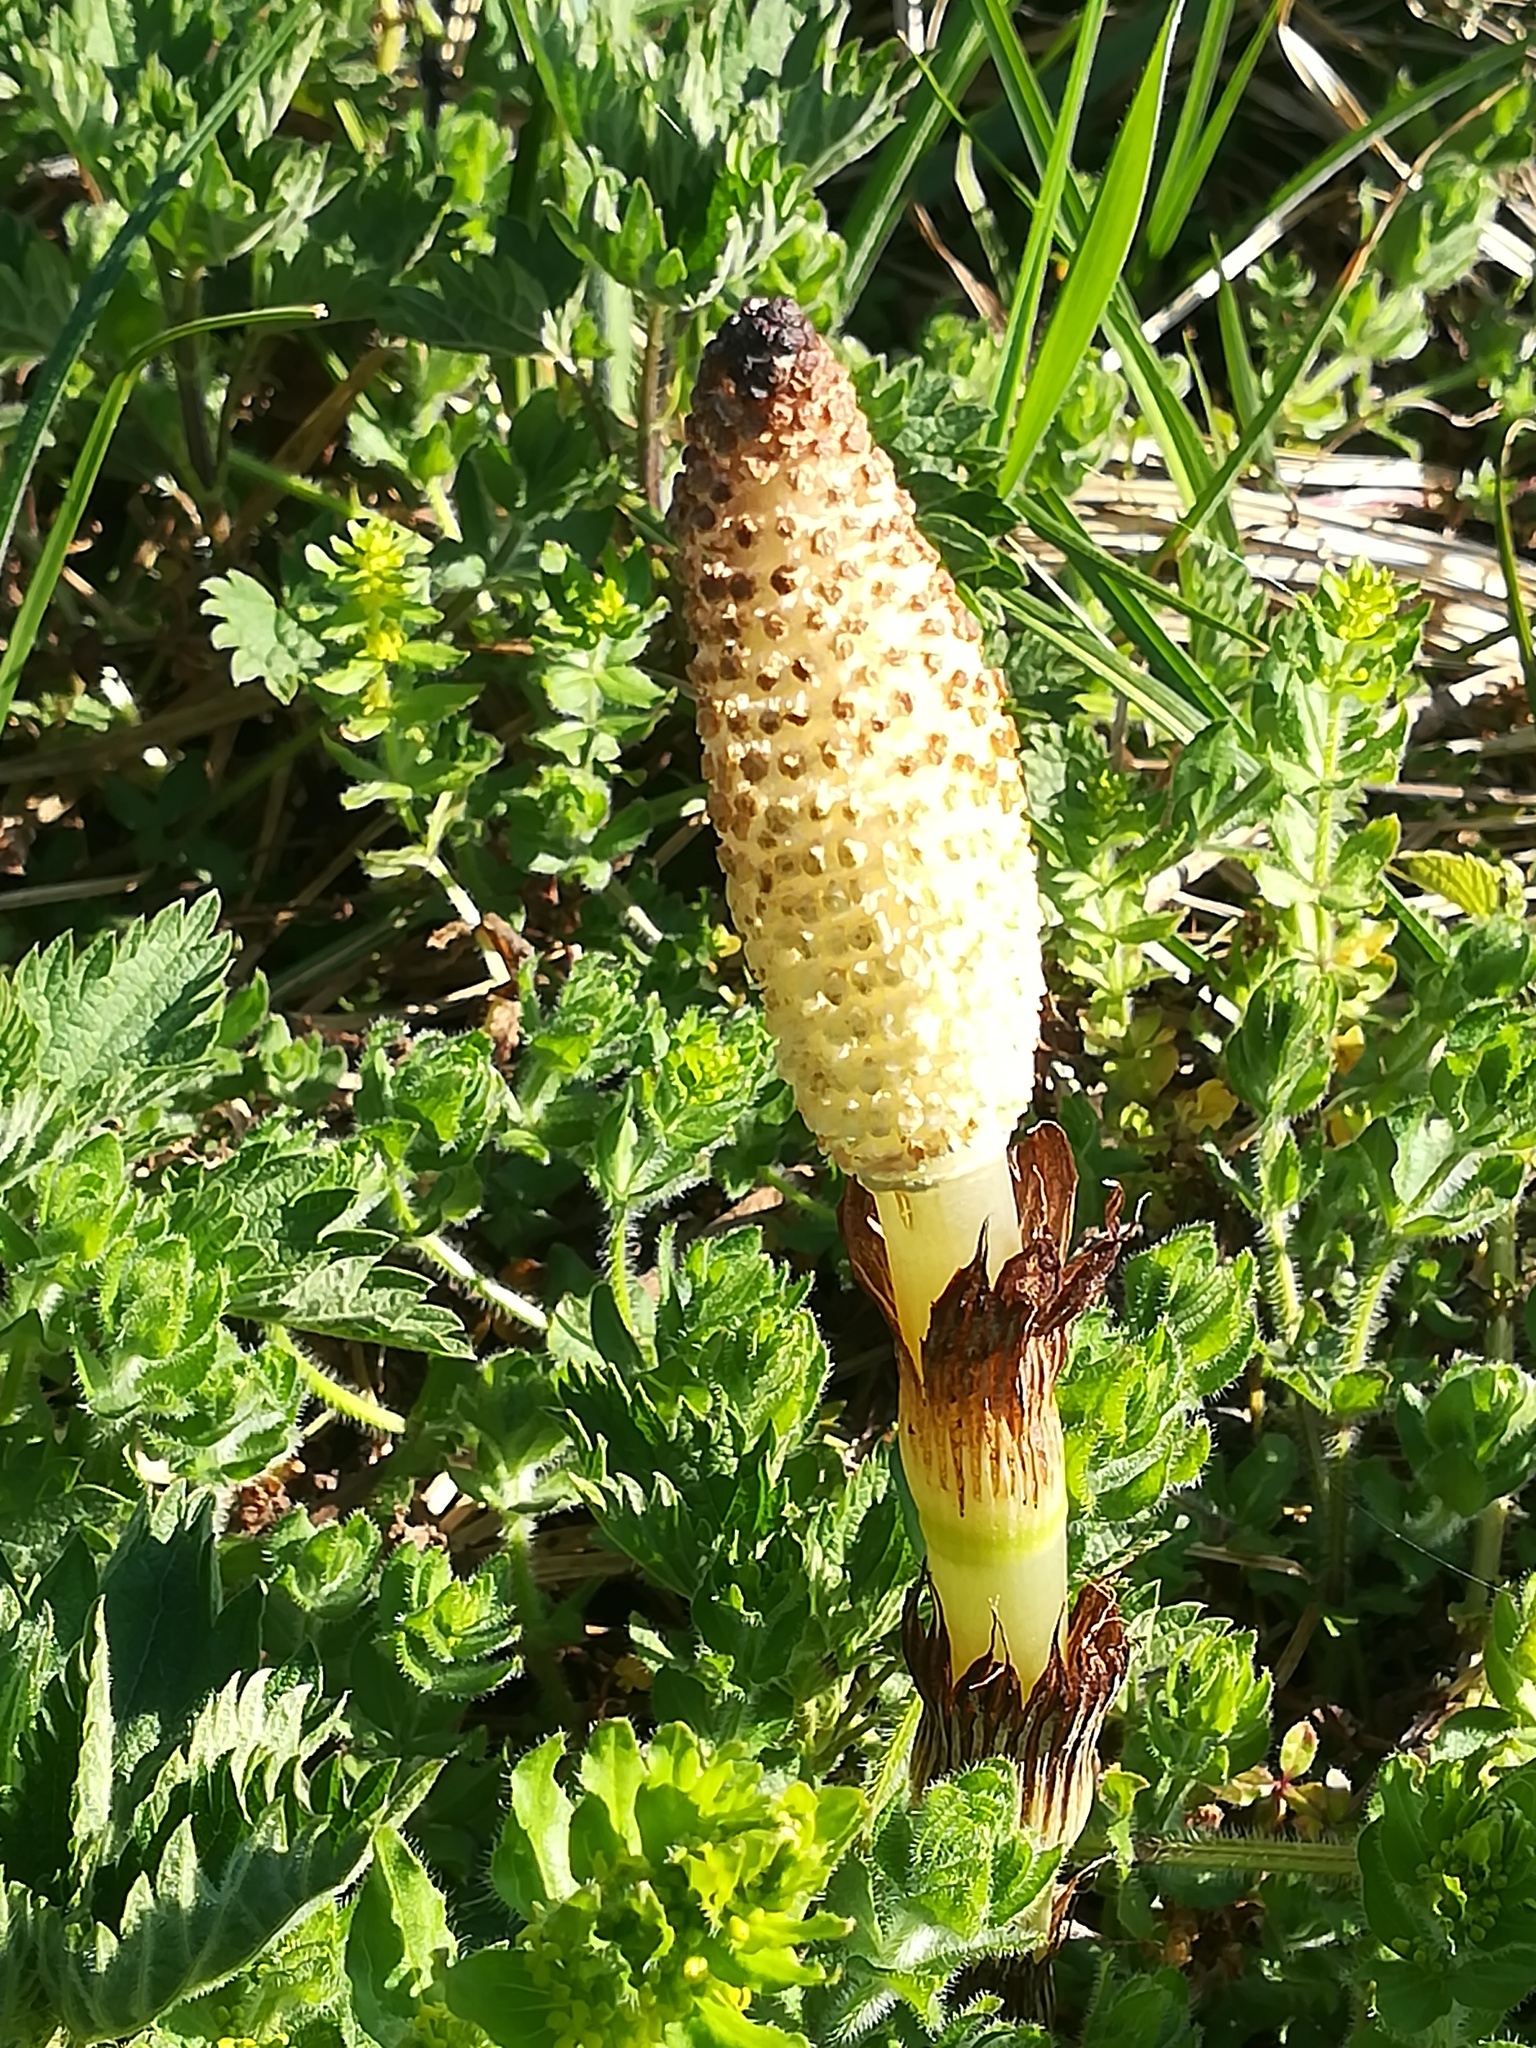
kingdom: Plantae
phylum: Tracheophyta
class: Polypodiopsida
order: Equisetales
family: Equisetaceae
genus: Equisetum
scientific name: Equisetum telmateia
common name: Great horsetail
